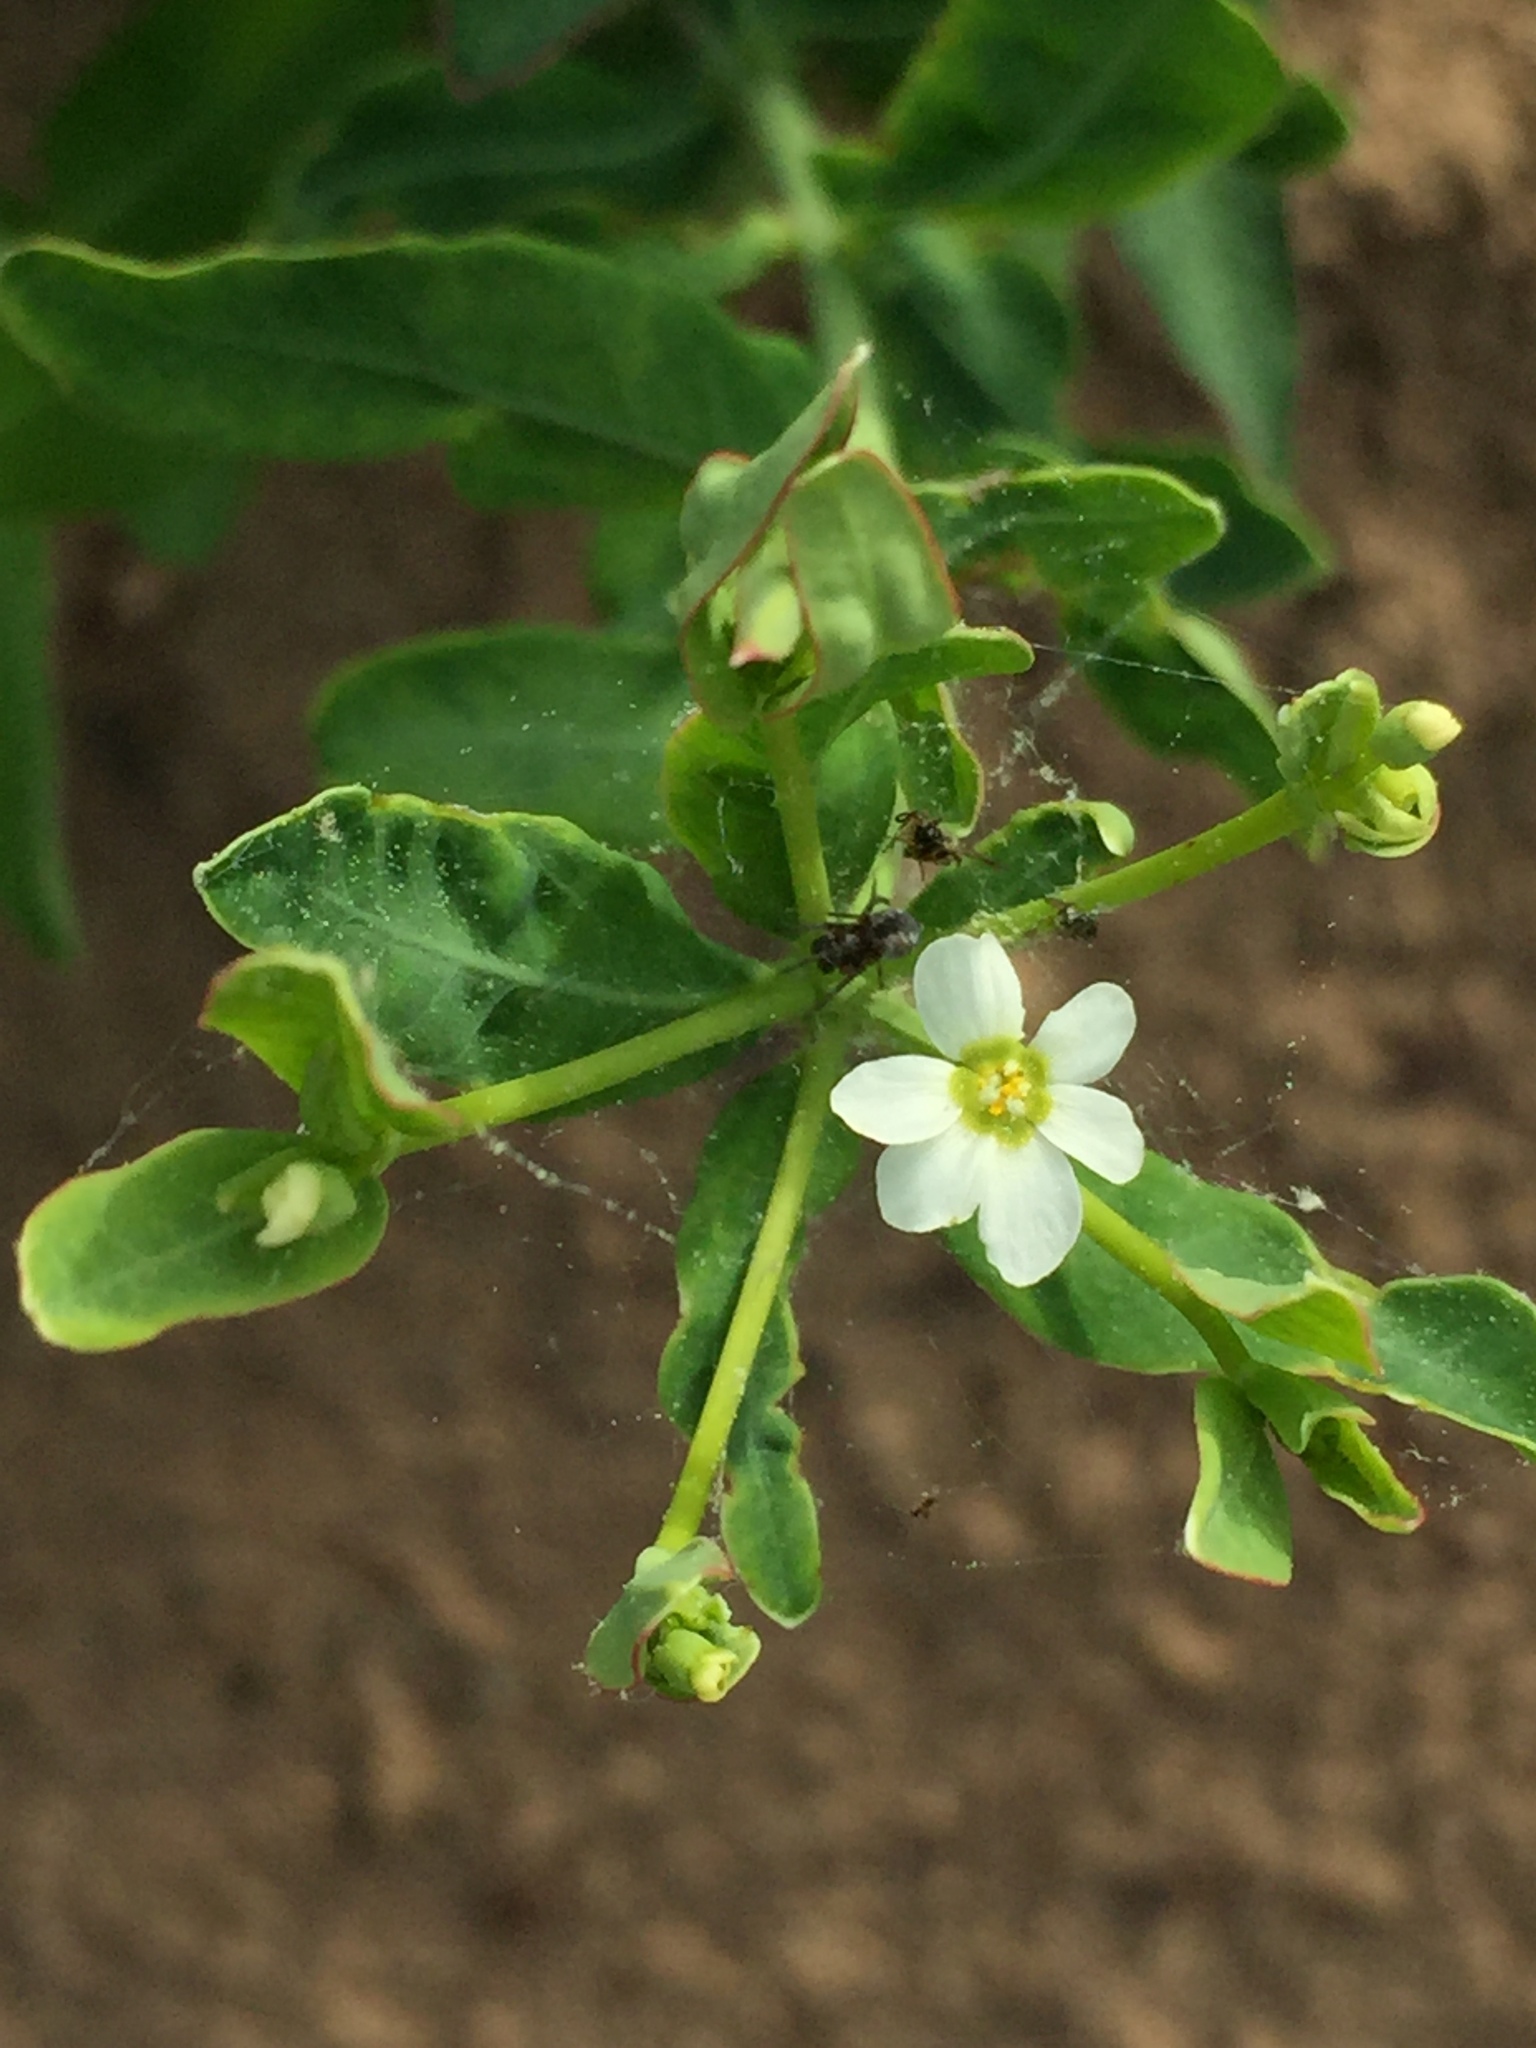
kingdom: Plantae
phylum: Tracheophyta
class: Magnoliopsida
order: Malpighiales
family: Euphorbiaceae
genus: Euphorbia
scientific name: Euphorbia corollata
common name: Flowering spurge
